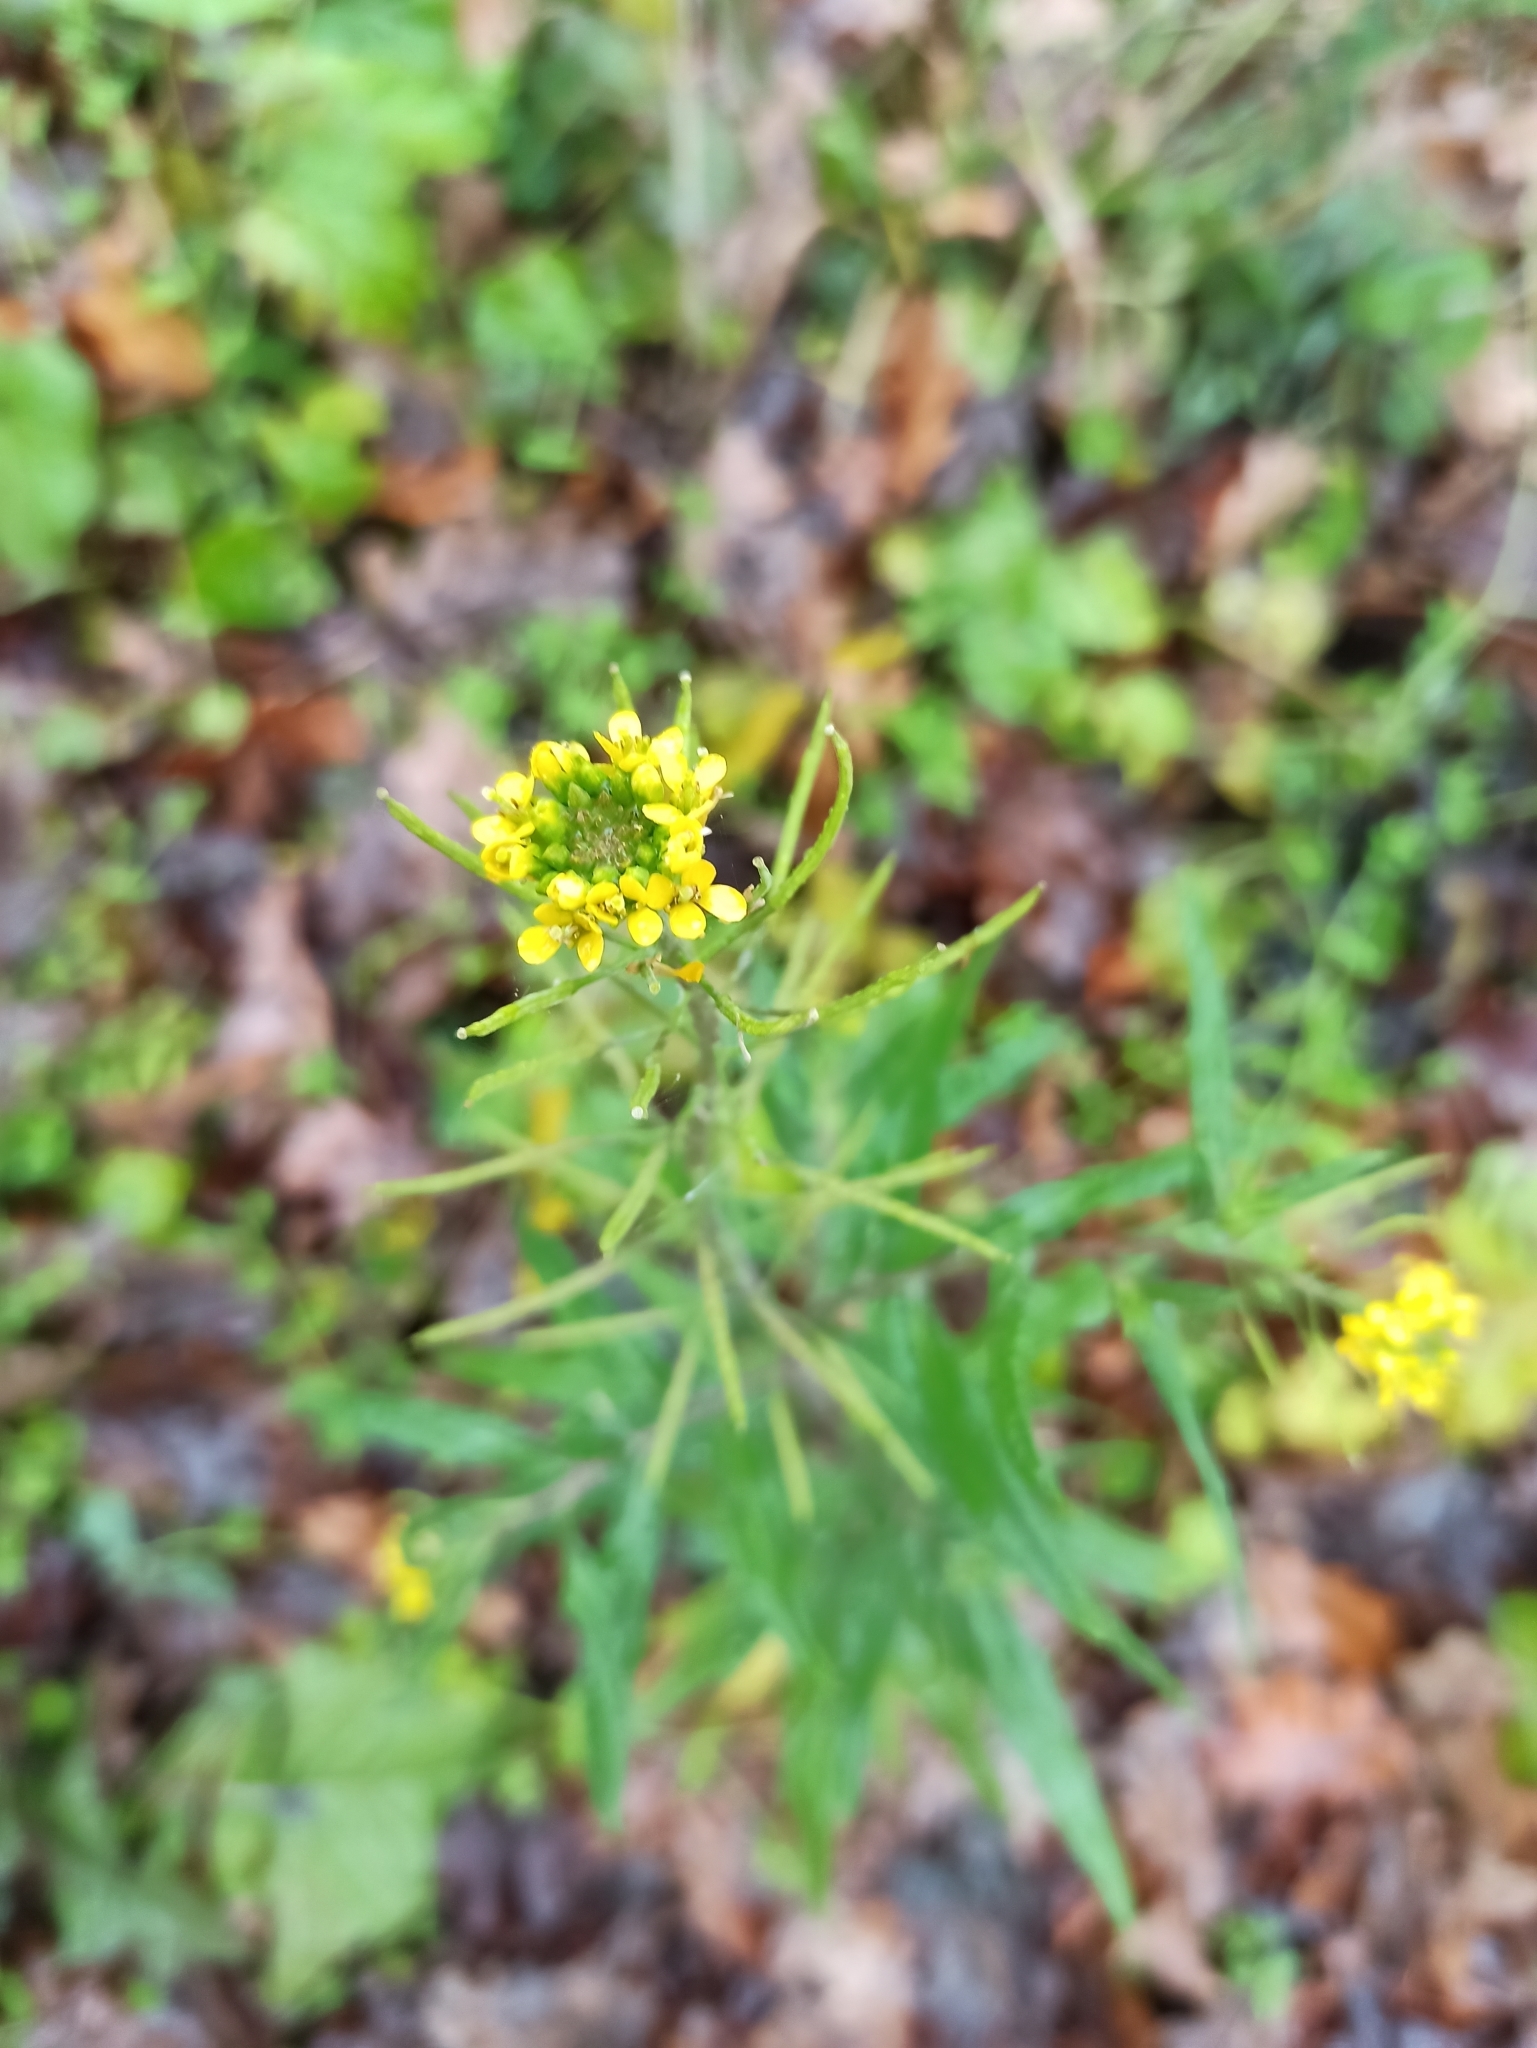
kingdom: Plantae
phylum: Tracheophyta
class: Magnoliopsida
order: Brassicales
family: Brassicaceae
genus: Erysimum
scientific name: Erysimum cheiranthoides
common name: Treacle mustard
